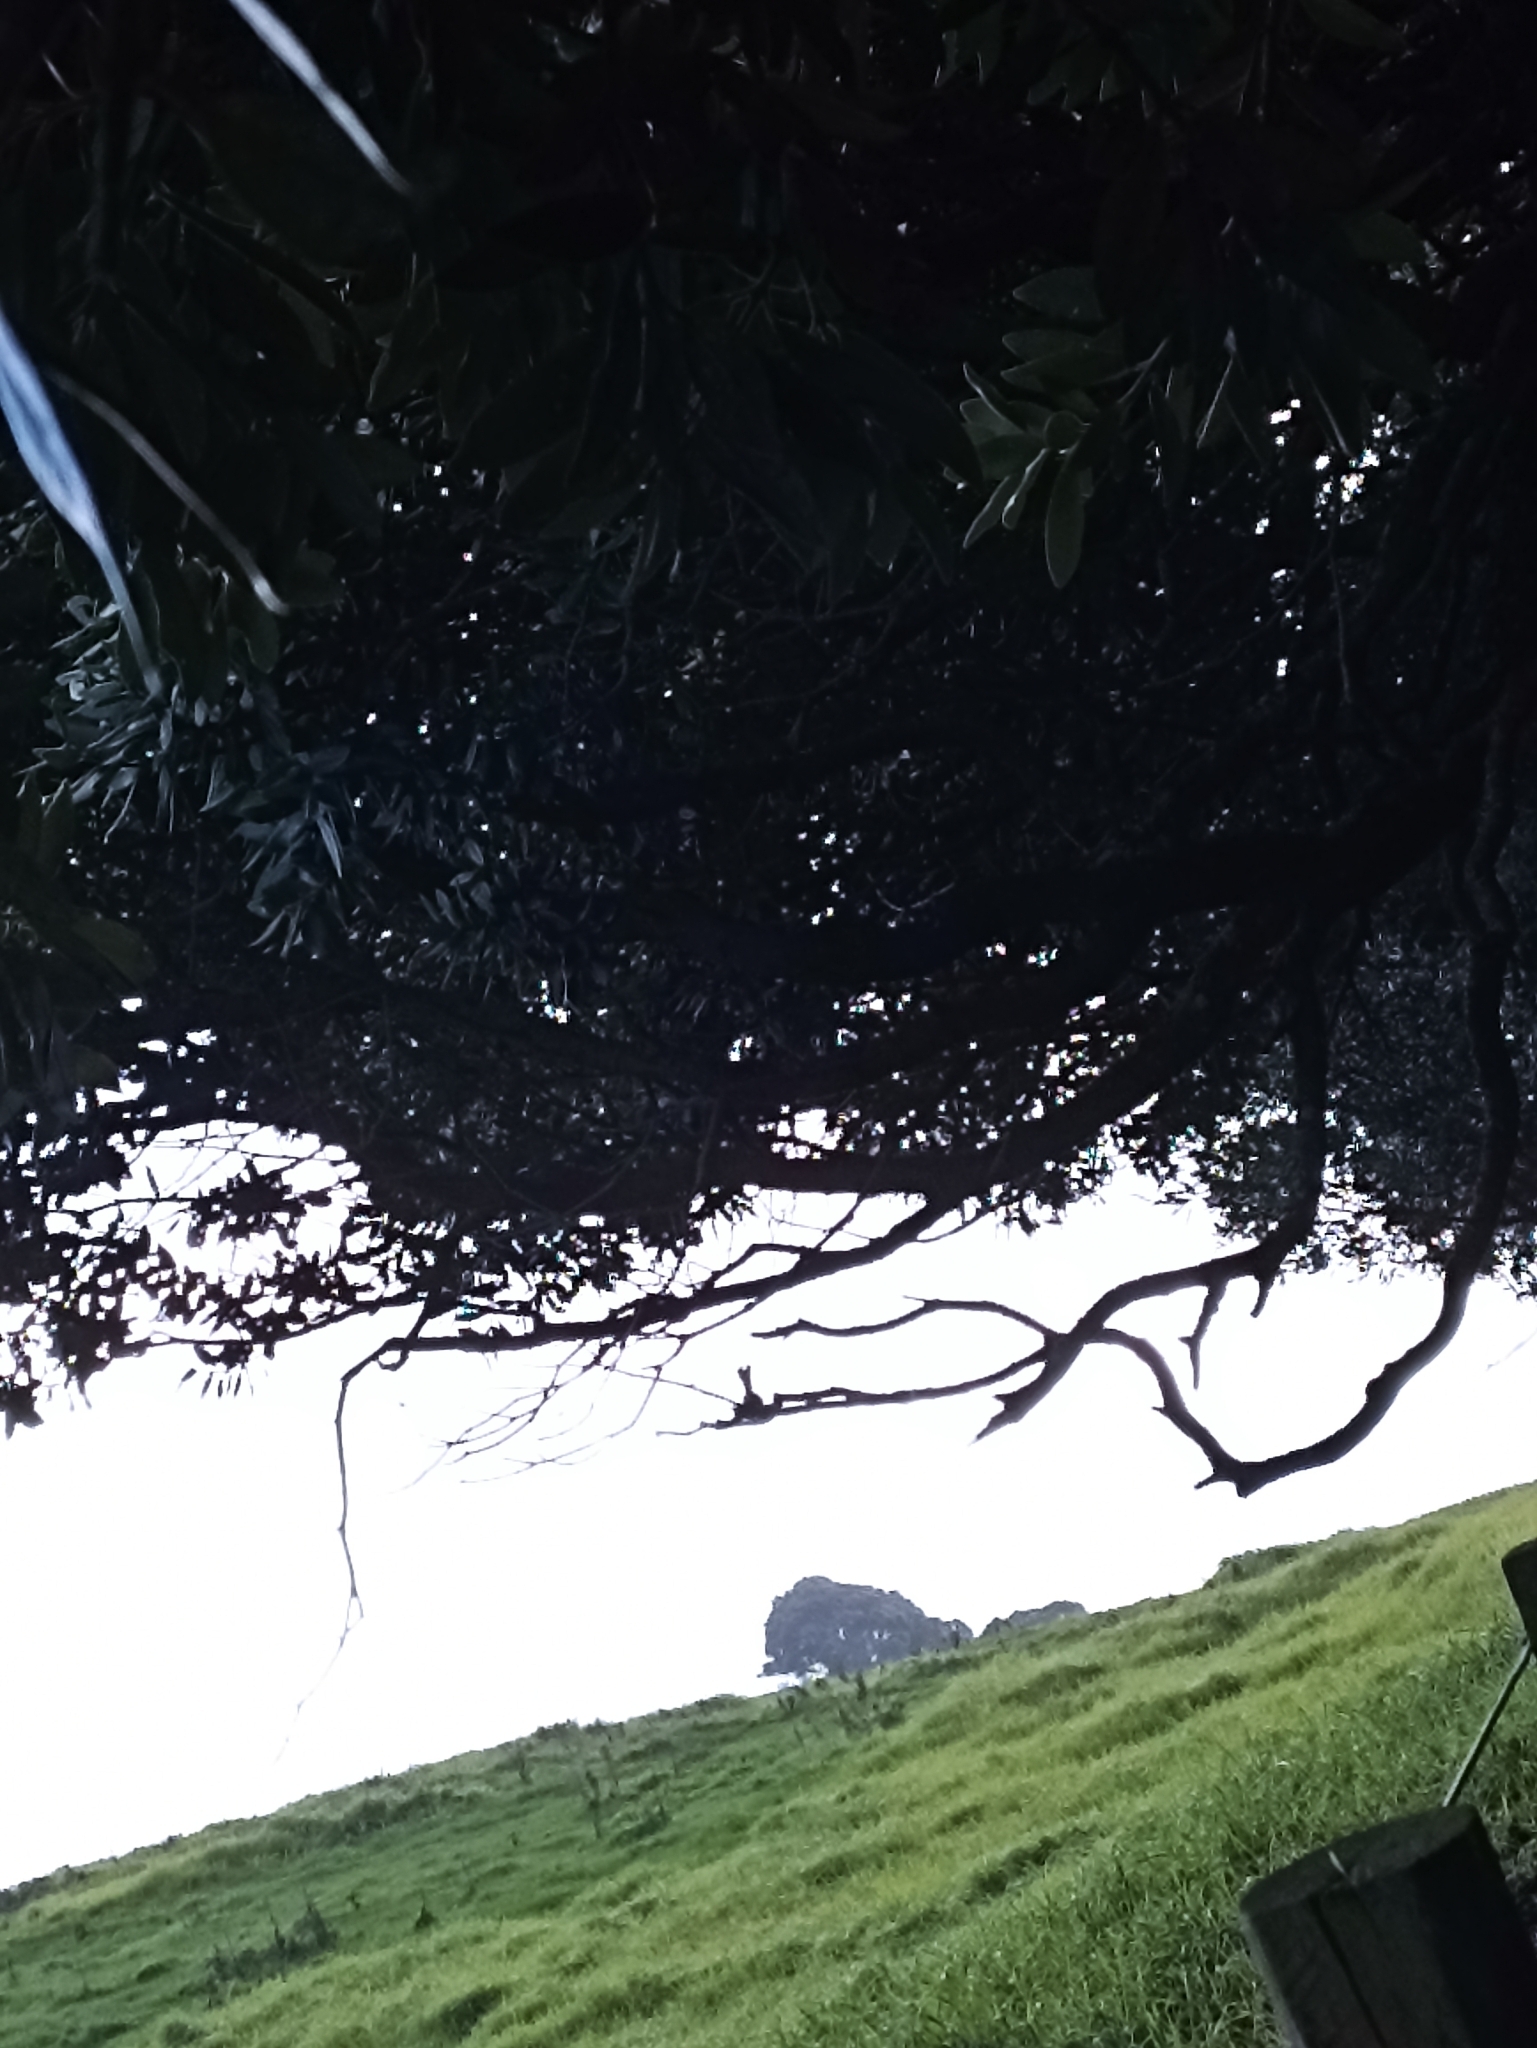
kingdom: Animalia
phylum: Chordata
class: Aves
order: Passeriformes
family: Rhipiduridae
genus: Rhipidura
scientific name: Rhipidura fuliginosa
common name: New zealand fantail
